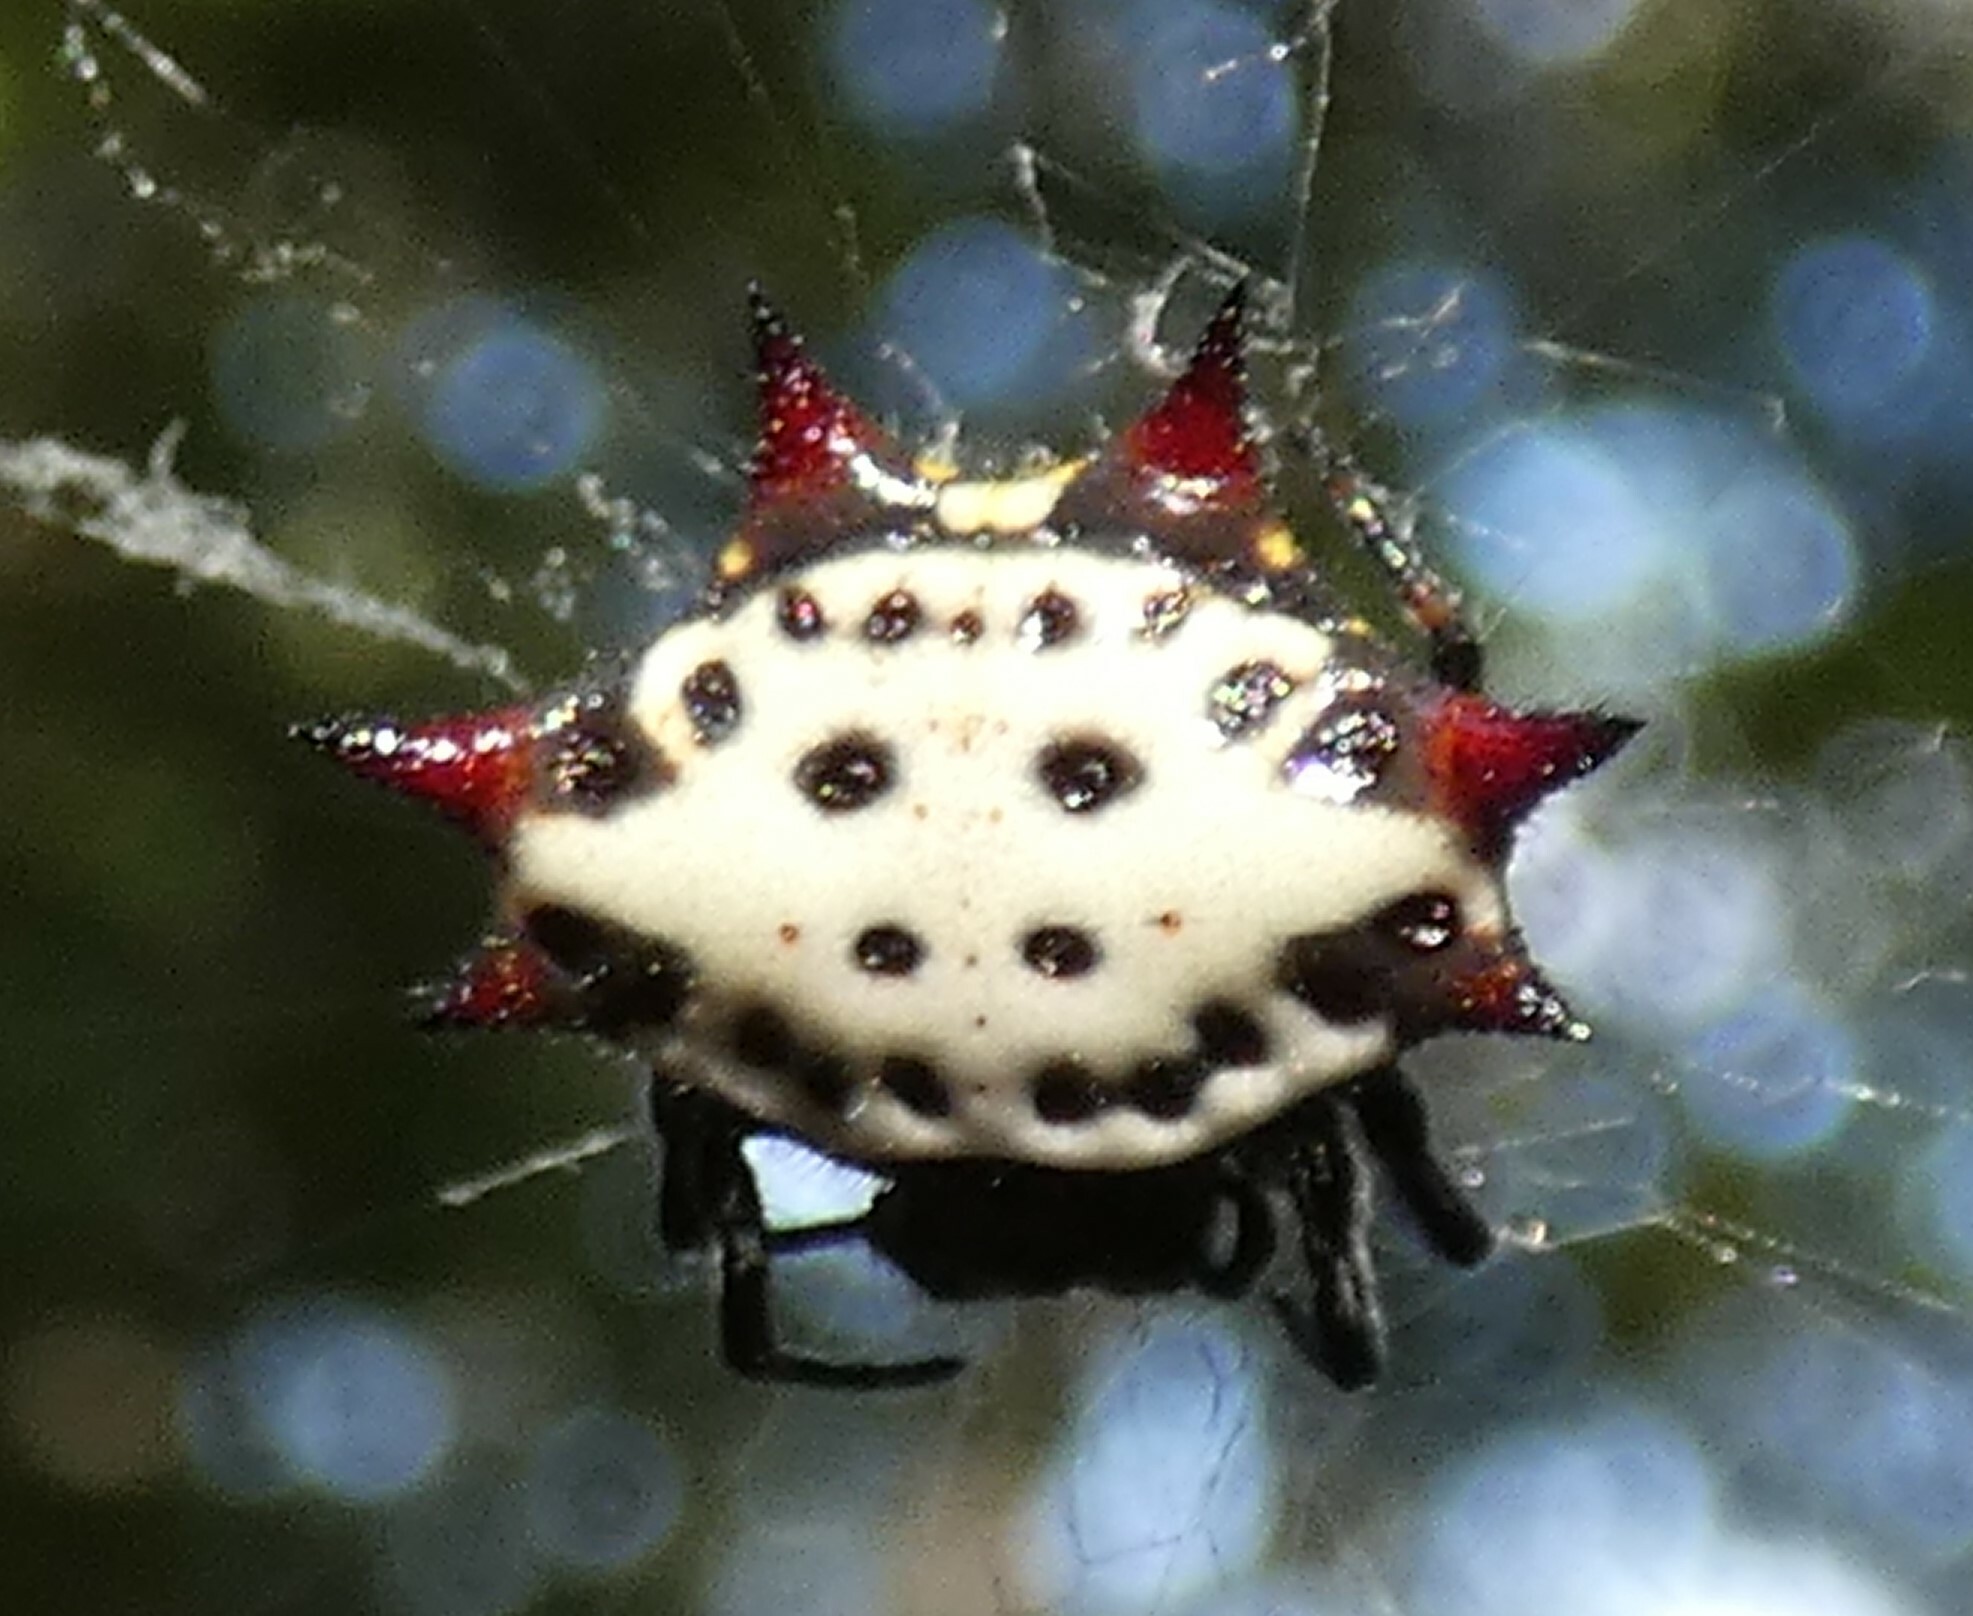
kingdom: Animalia
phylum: Arthropoda
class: Arachnida
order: Araneae
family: Araneidae
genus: Gasteracantha
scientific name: Gasteracantha cancriformis
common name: Orb weavers
